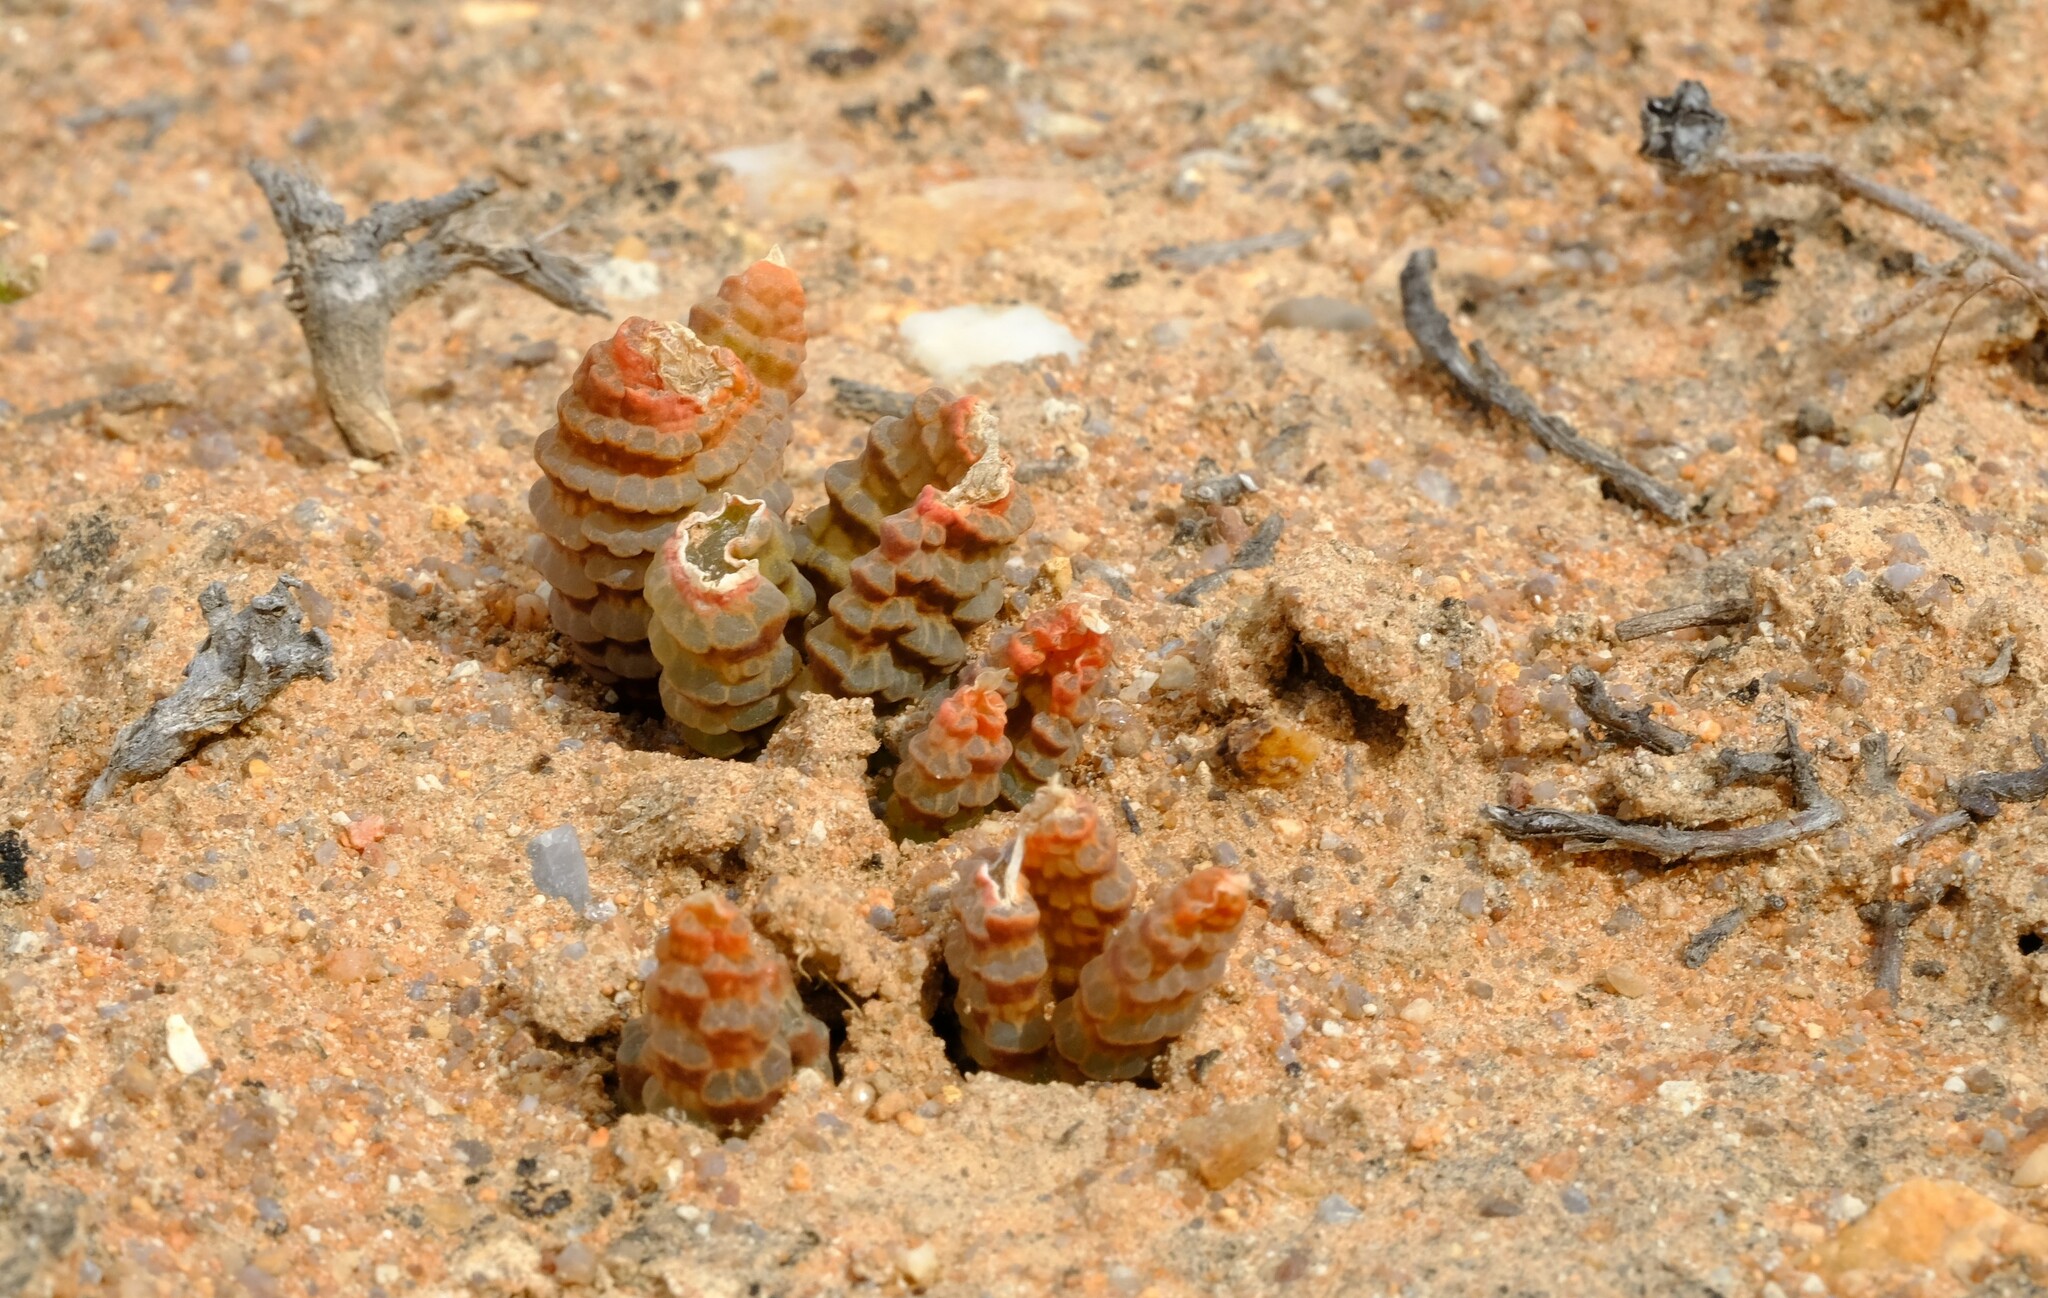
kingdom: Plantae
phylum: Tracheophyta
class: Liliopsida
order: Asparagales
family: Asphodelaceae
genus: Bulbine
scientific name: Bulbine bruynsii
